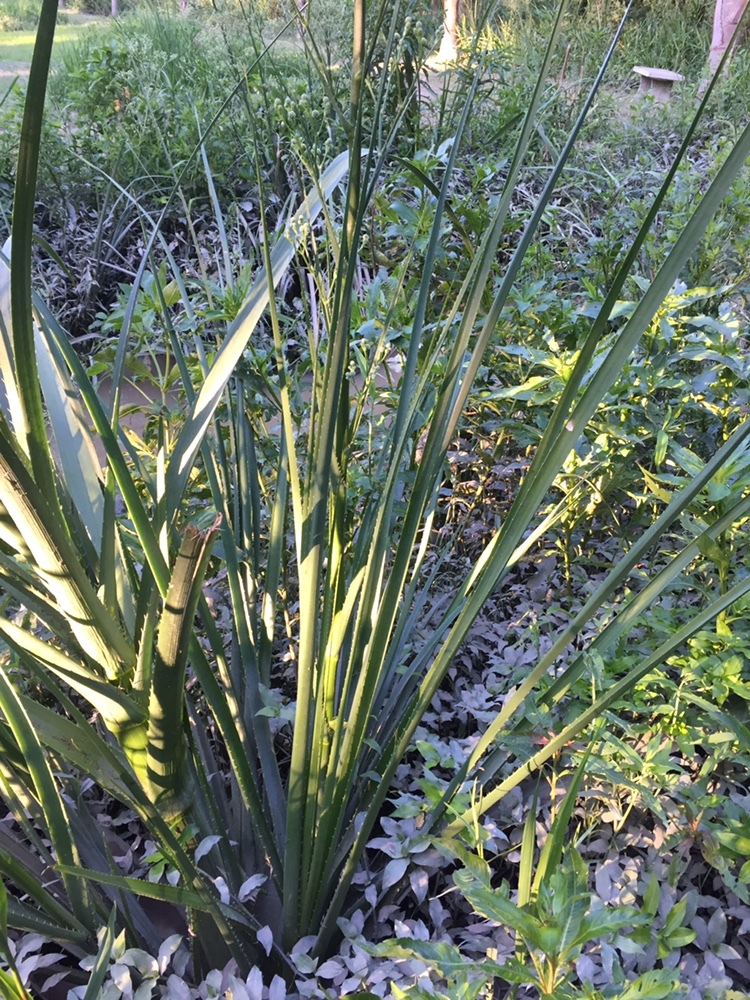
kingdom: Plantae
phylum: Tracheophyta
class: Magnoliopsida
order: Apiales
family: Apiaceae
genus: Eryngium
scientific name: Eryngium pandanifolium
